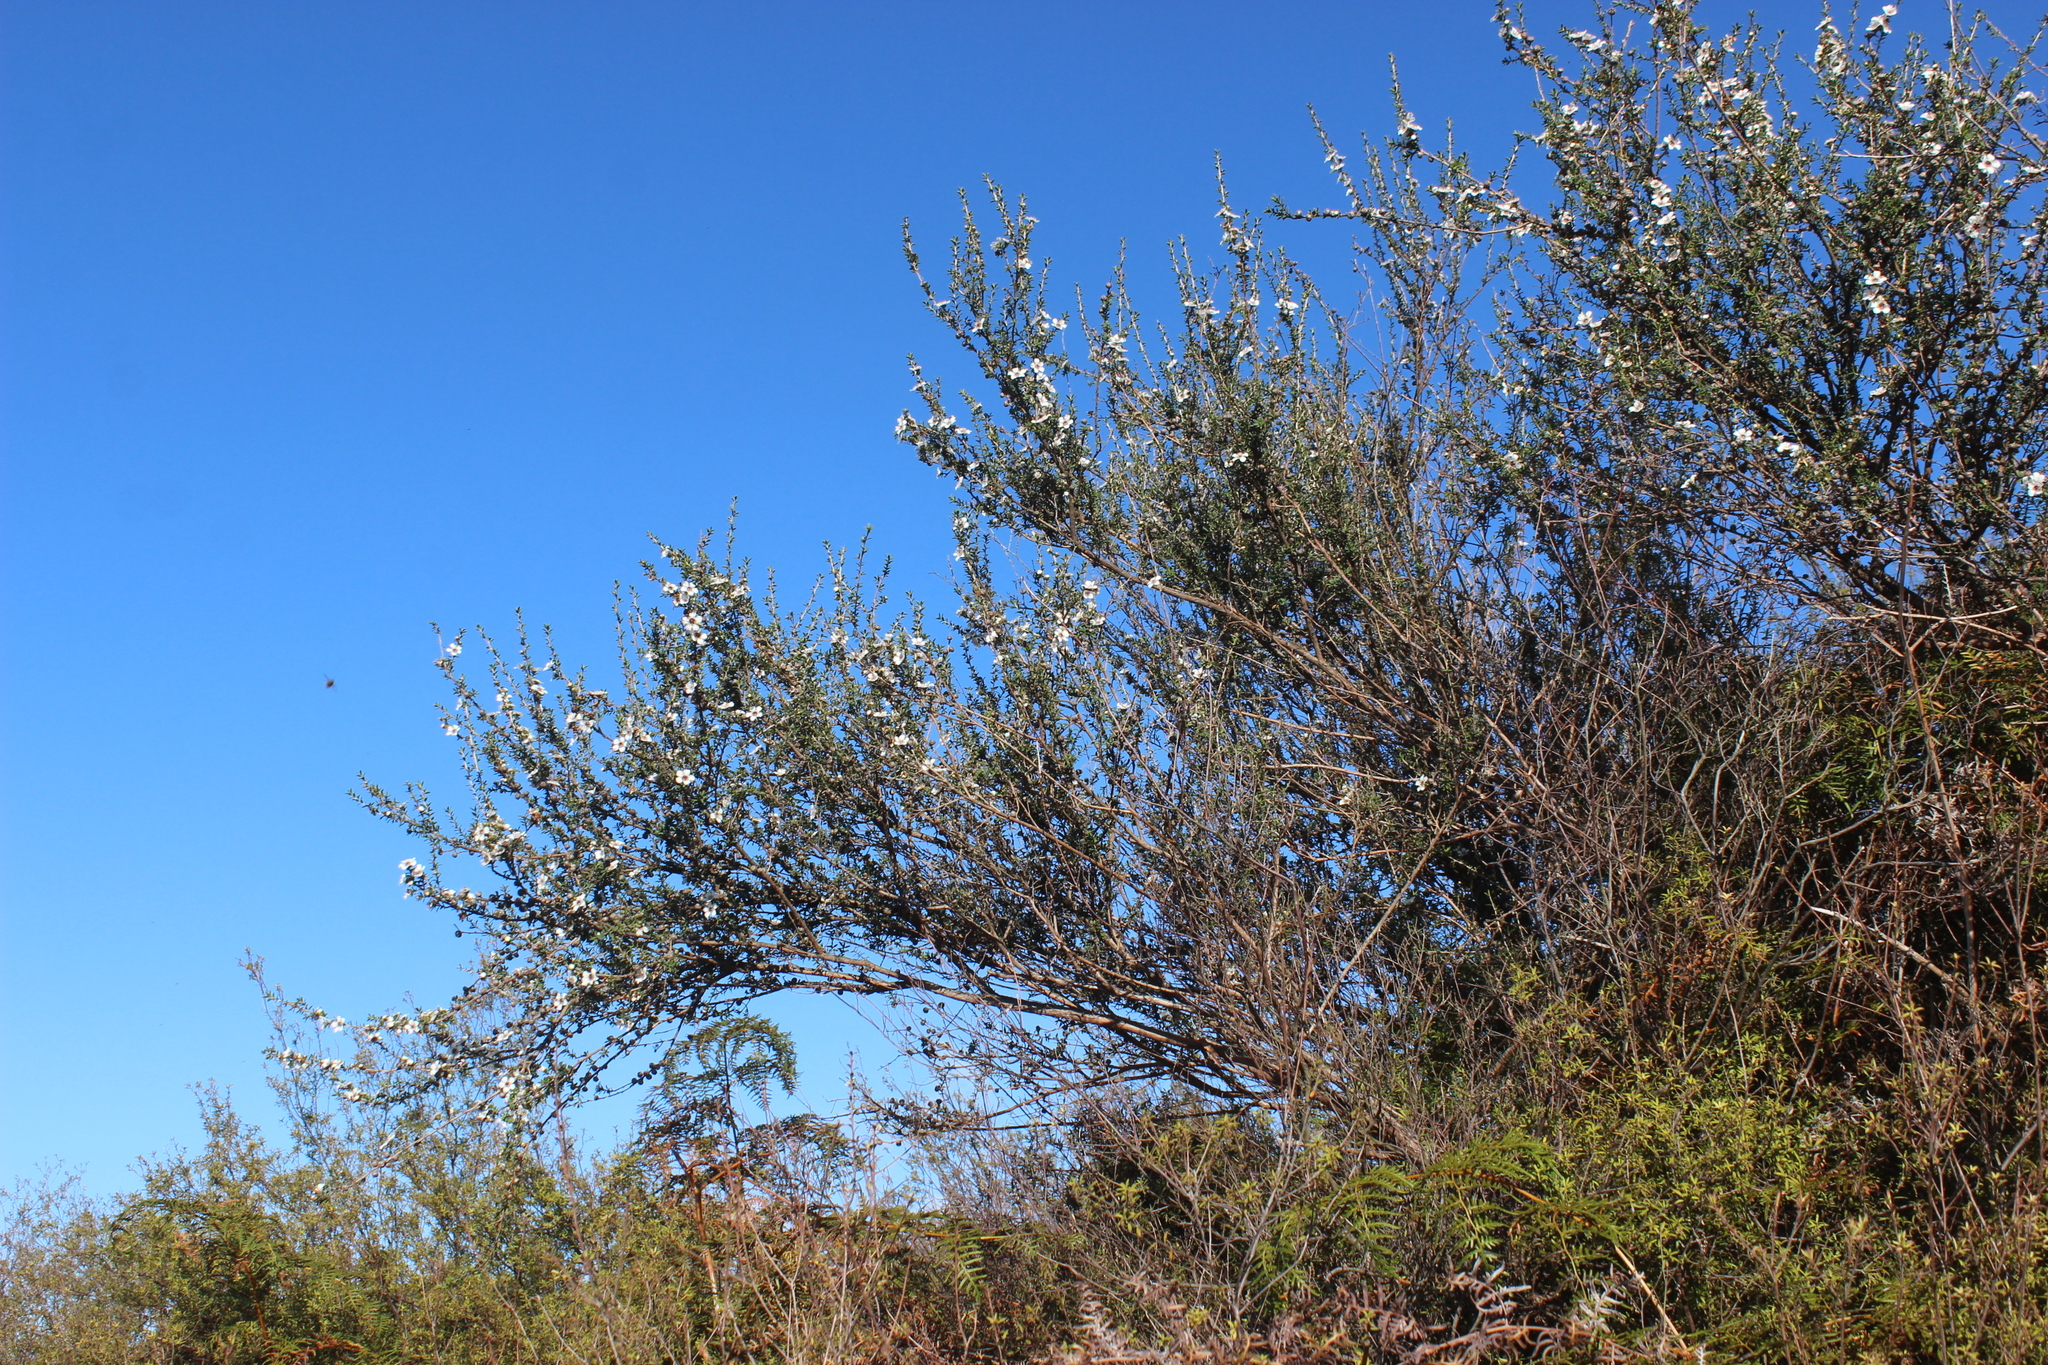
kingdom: Plantae
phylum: Tracheophyta
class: Magnoliopsida
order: Myrtales
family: Myrtaceae
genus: Leptospermum
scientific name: Leptospermum scoparium
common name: Broom tea-tree
